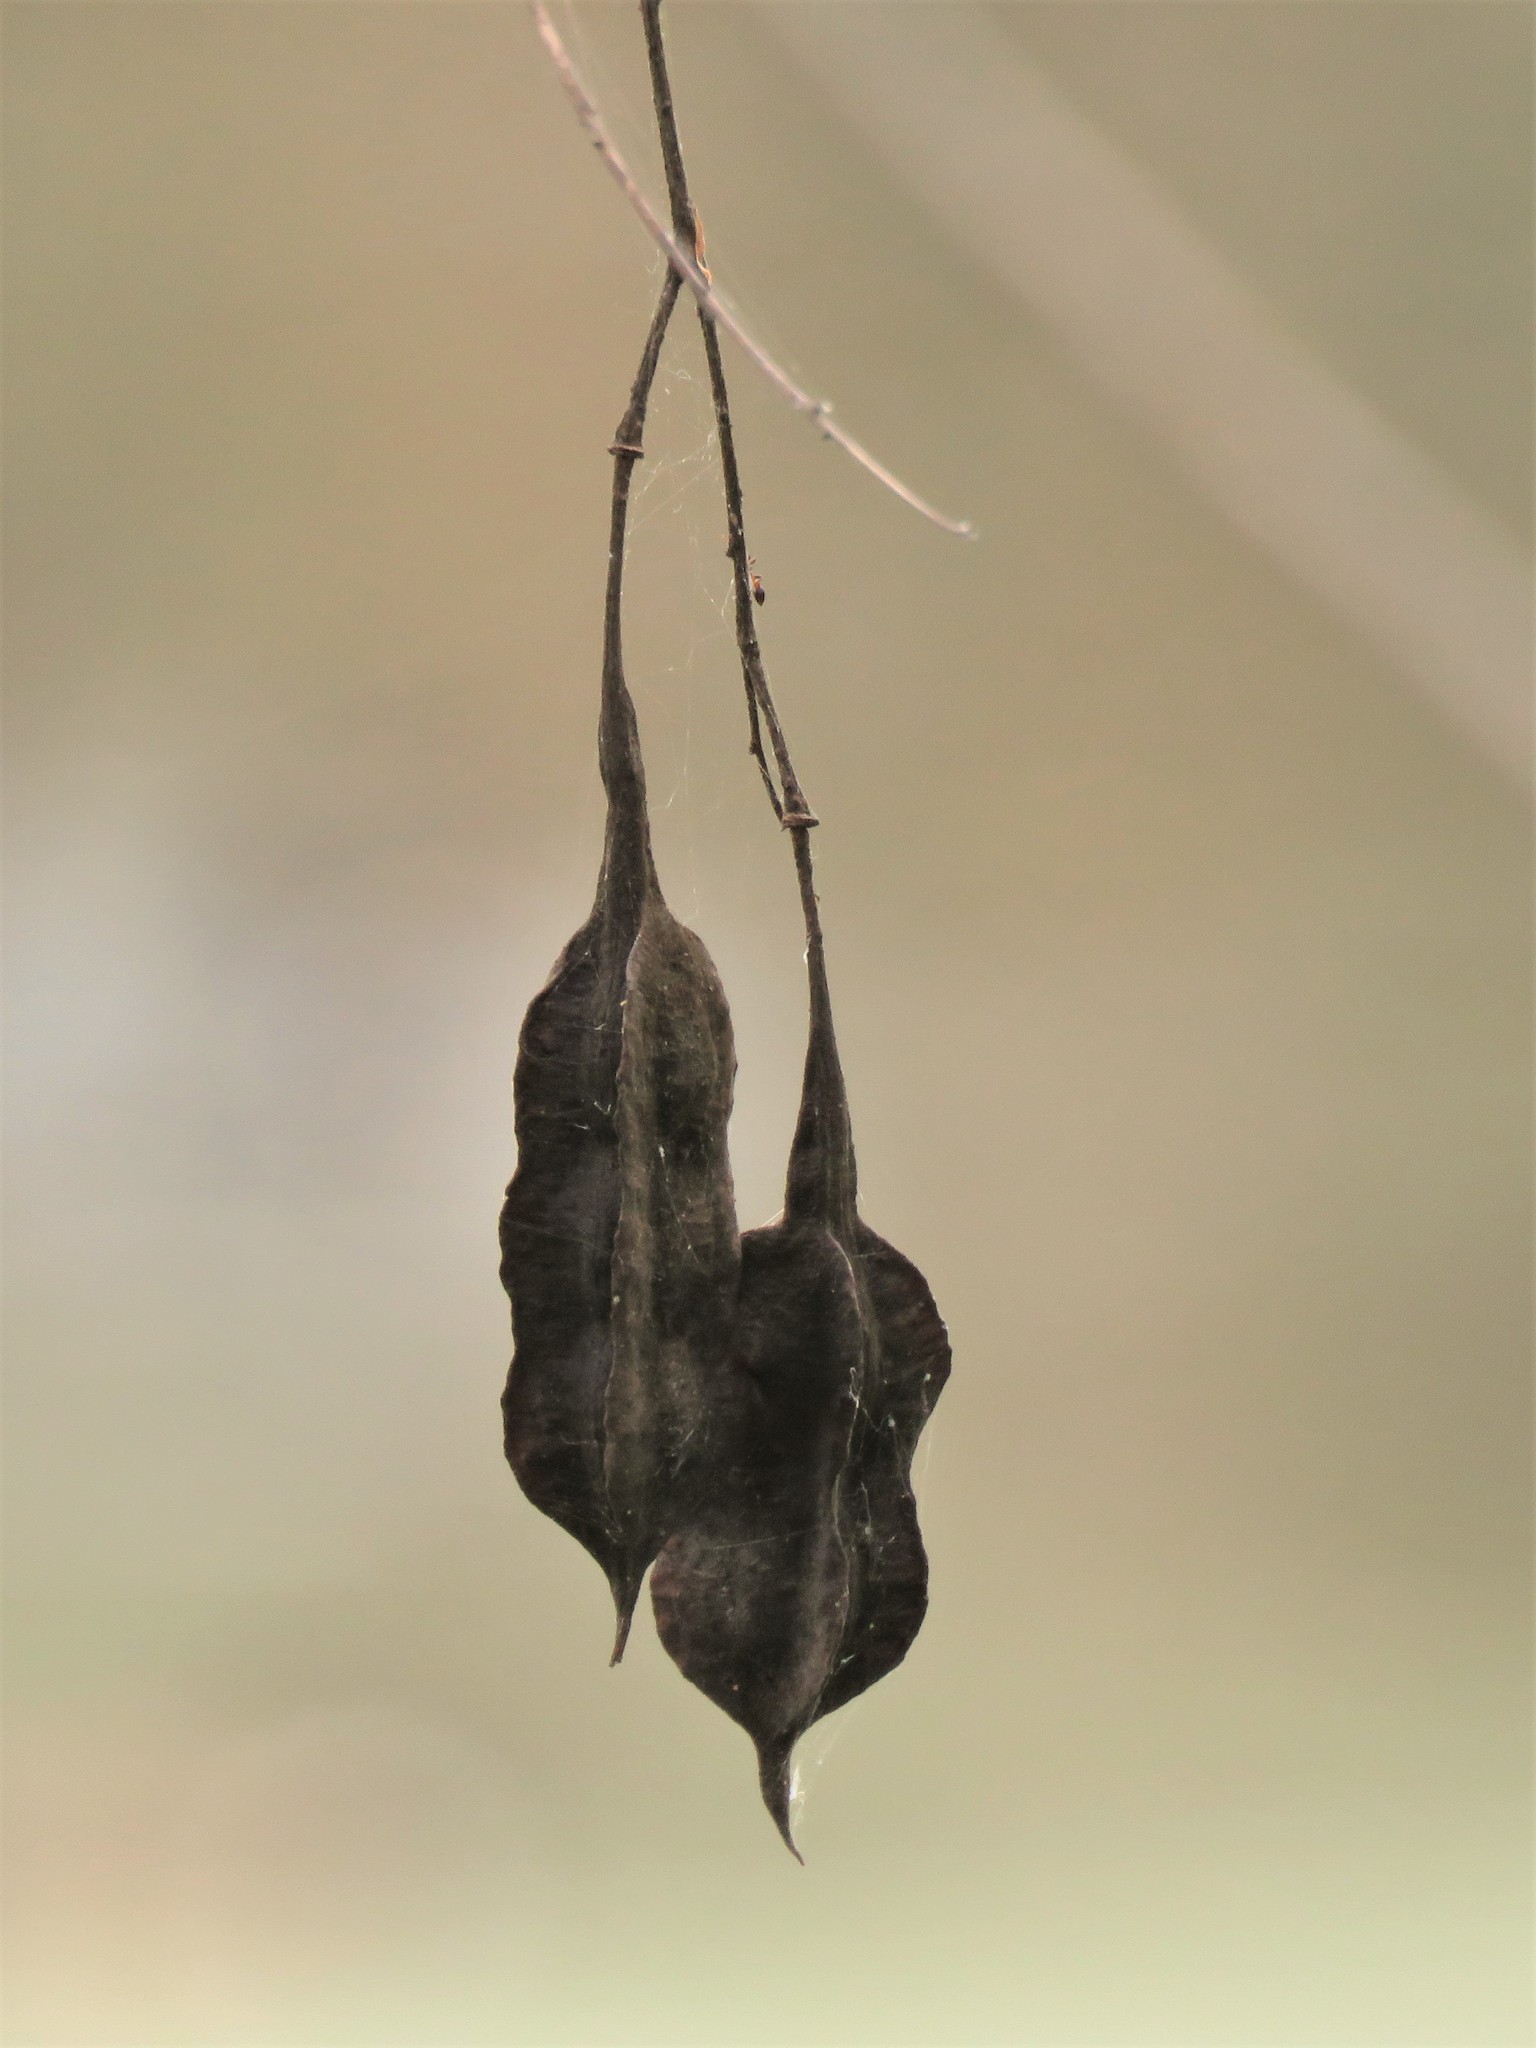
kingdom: Plantae
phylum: Tracheophyta
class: Magnoliopsida
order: Fabales
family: Fabaceae
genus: Sesbania
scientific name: Sesbania drummondii
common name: Poison-bean
